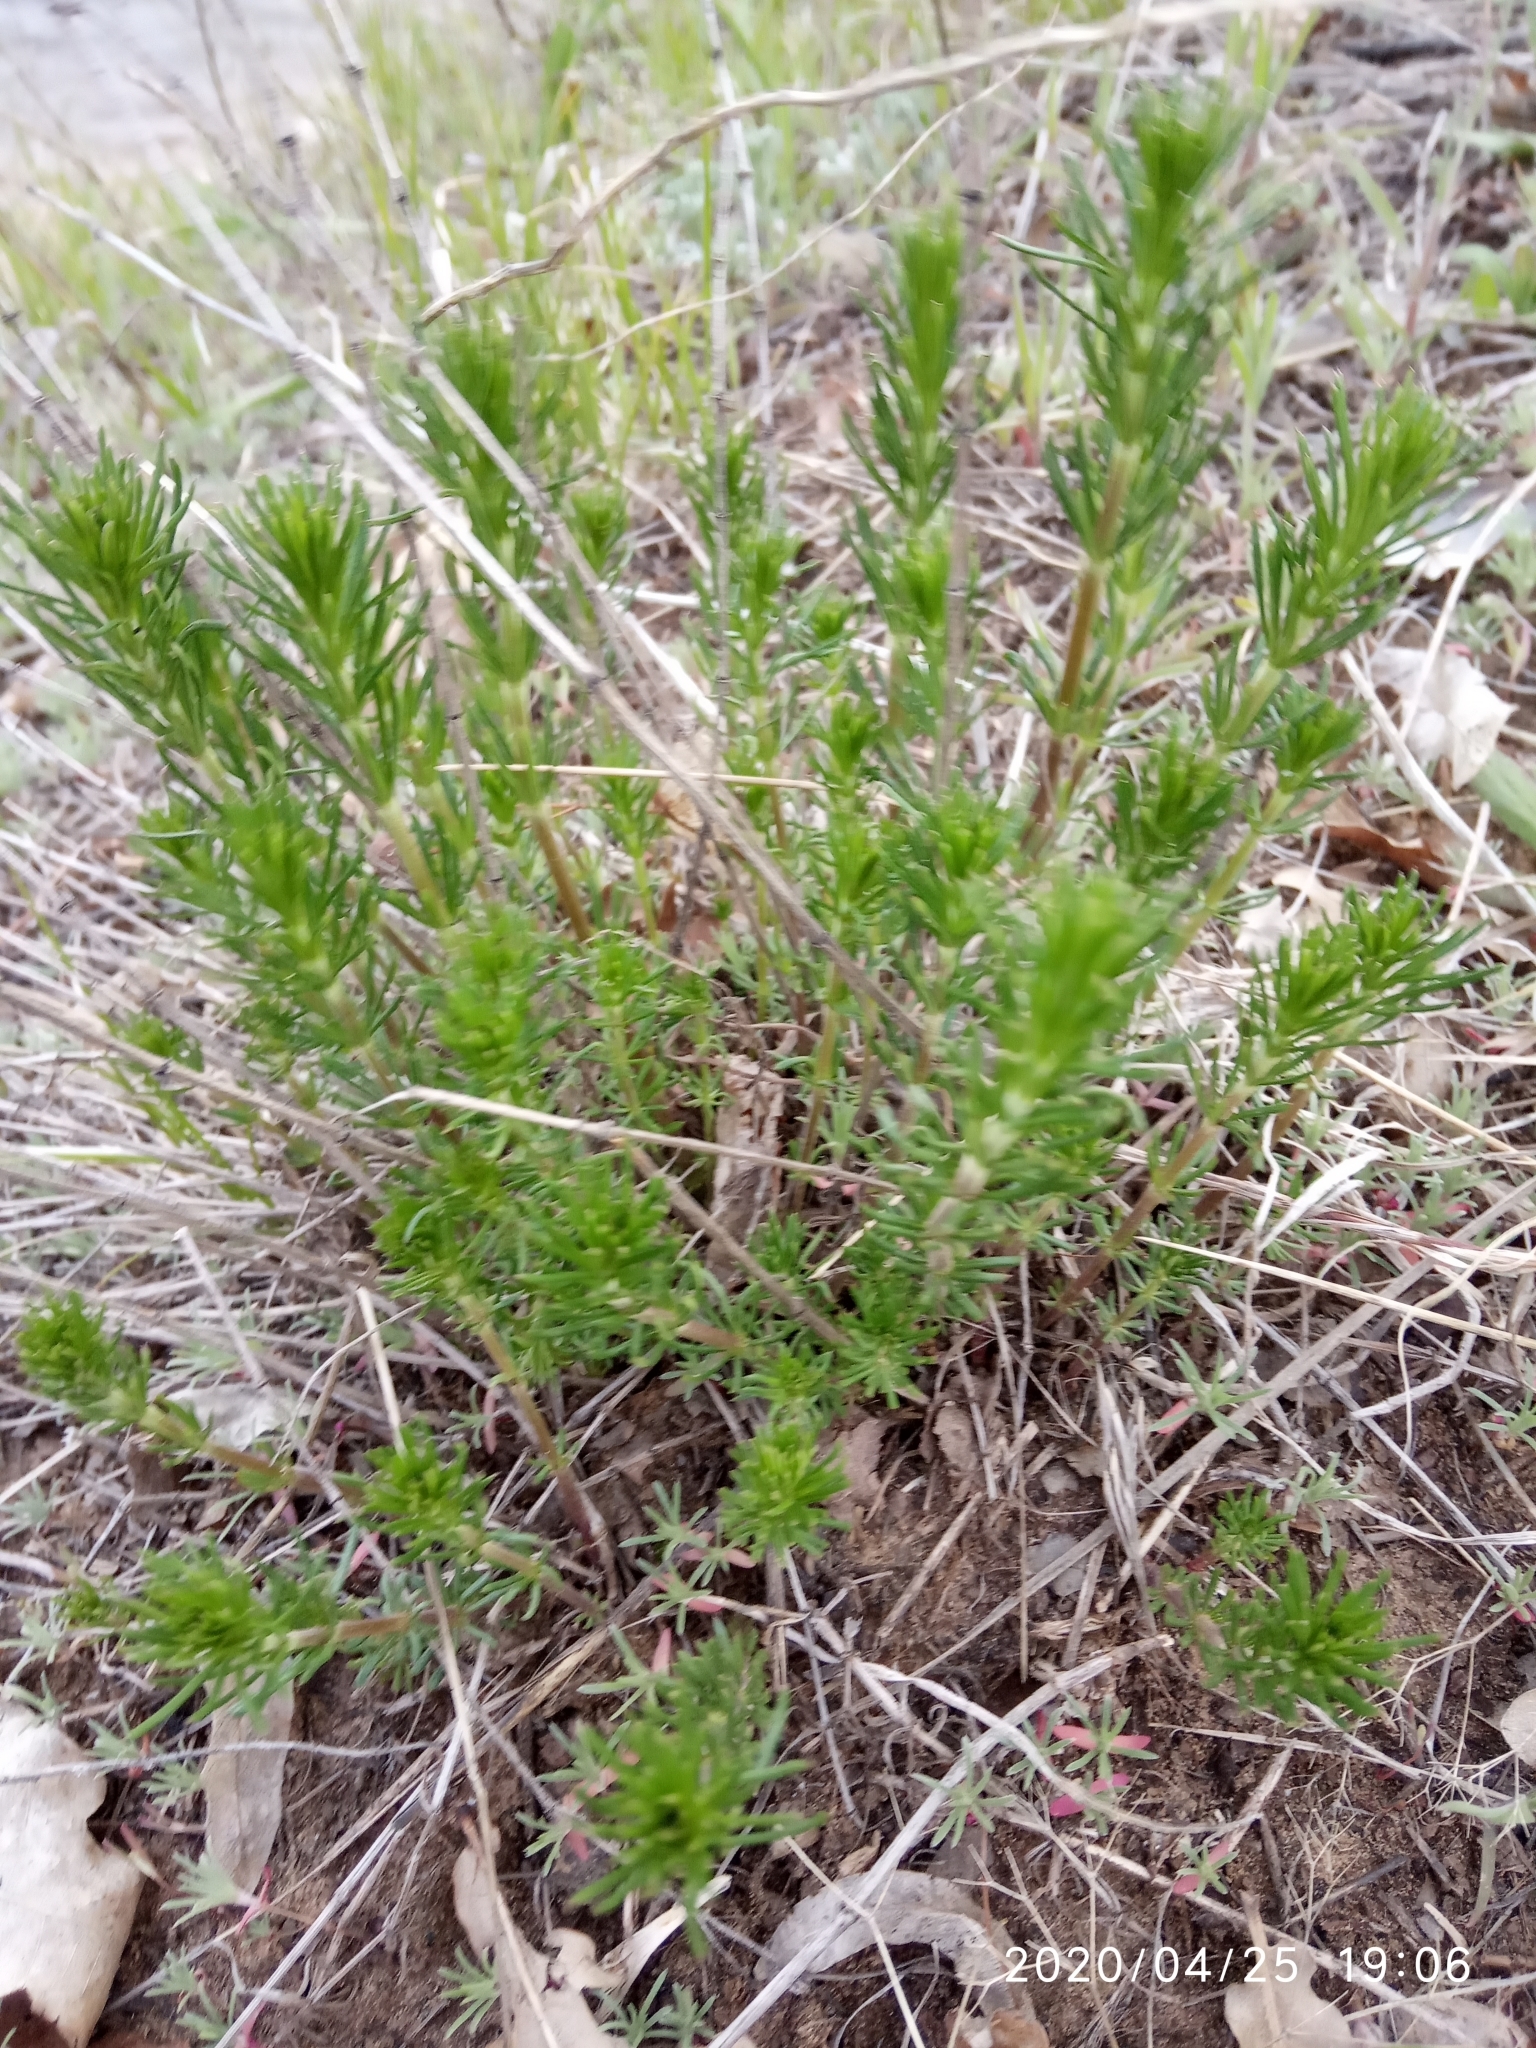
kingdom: Plantae
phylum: Tracheophyta
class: Magnoliopsida
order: Gentianales
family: Rubiaceae
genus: Galium
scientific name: Galium verum
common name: Lady's bedstraw
